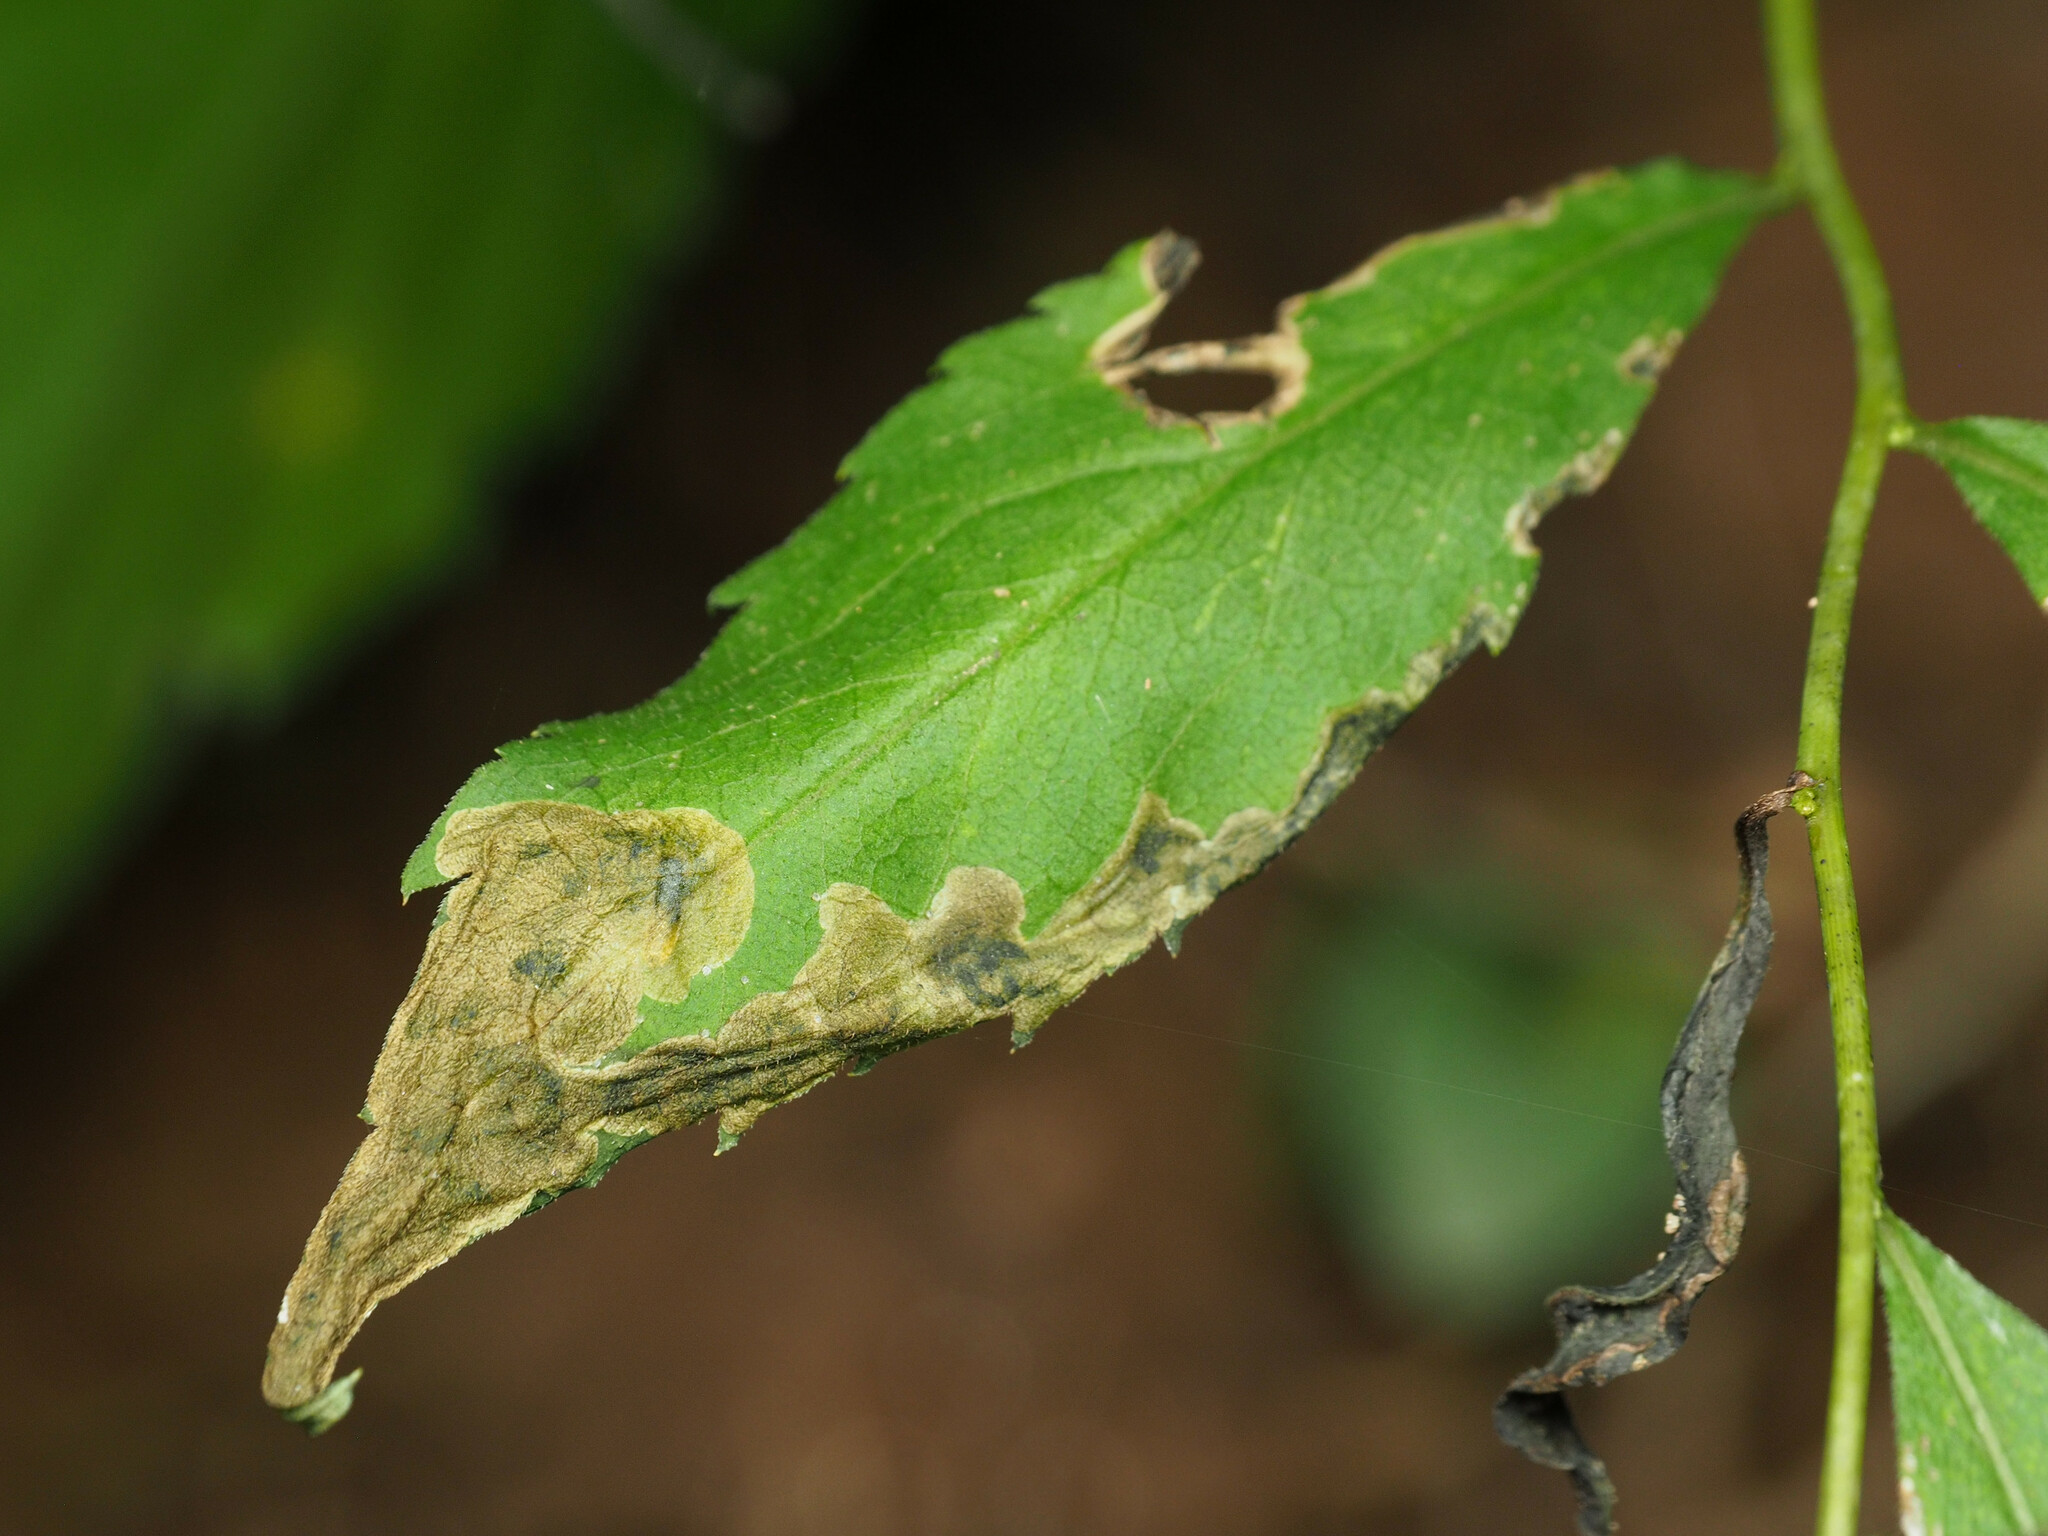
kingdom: Animalia
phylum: Arthropoda
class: Insecta
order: Diptera
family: Agromyzidae
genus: Nemorimyza
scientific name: Nemorimyza posticata
